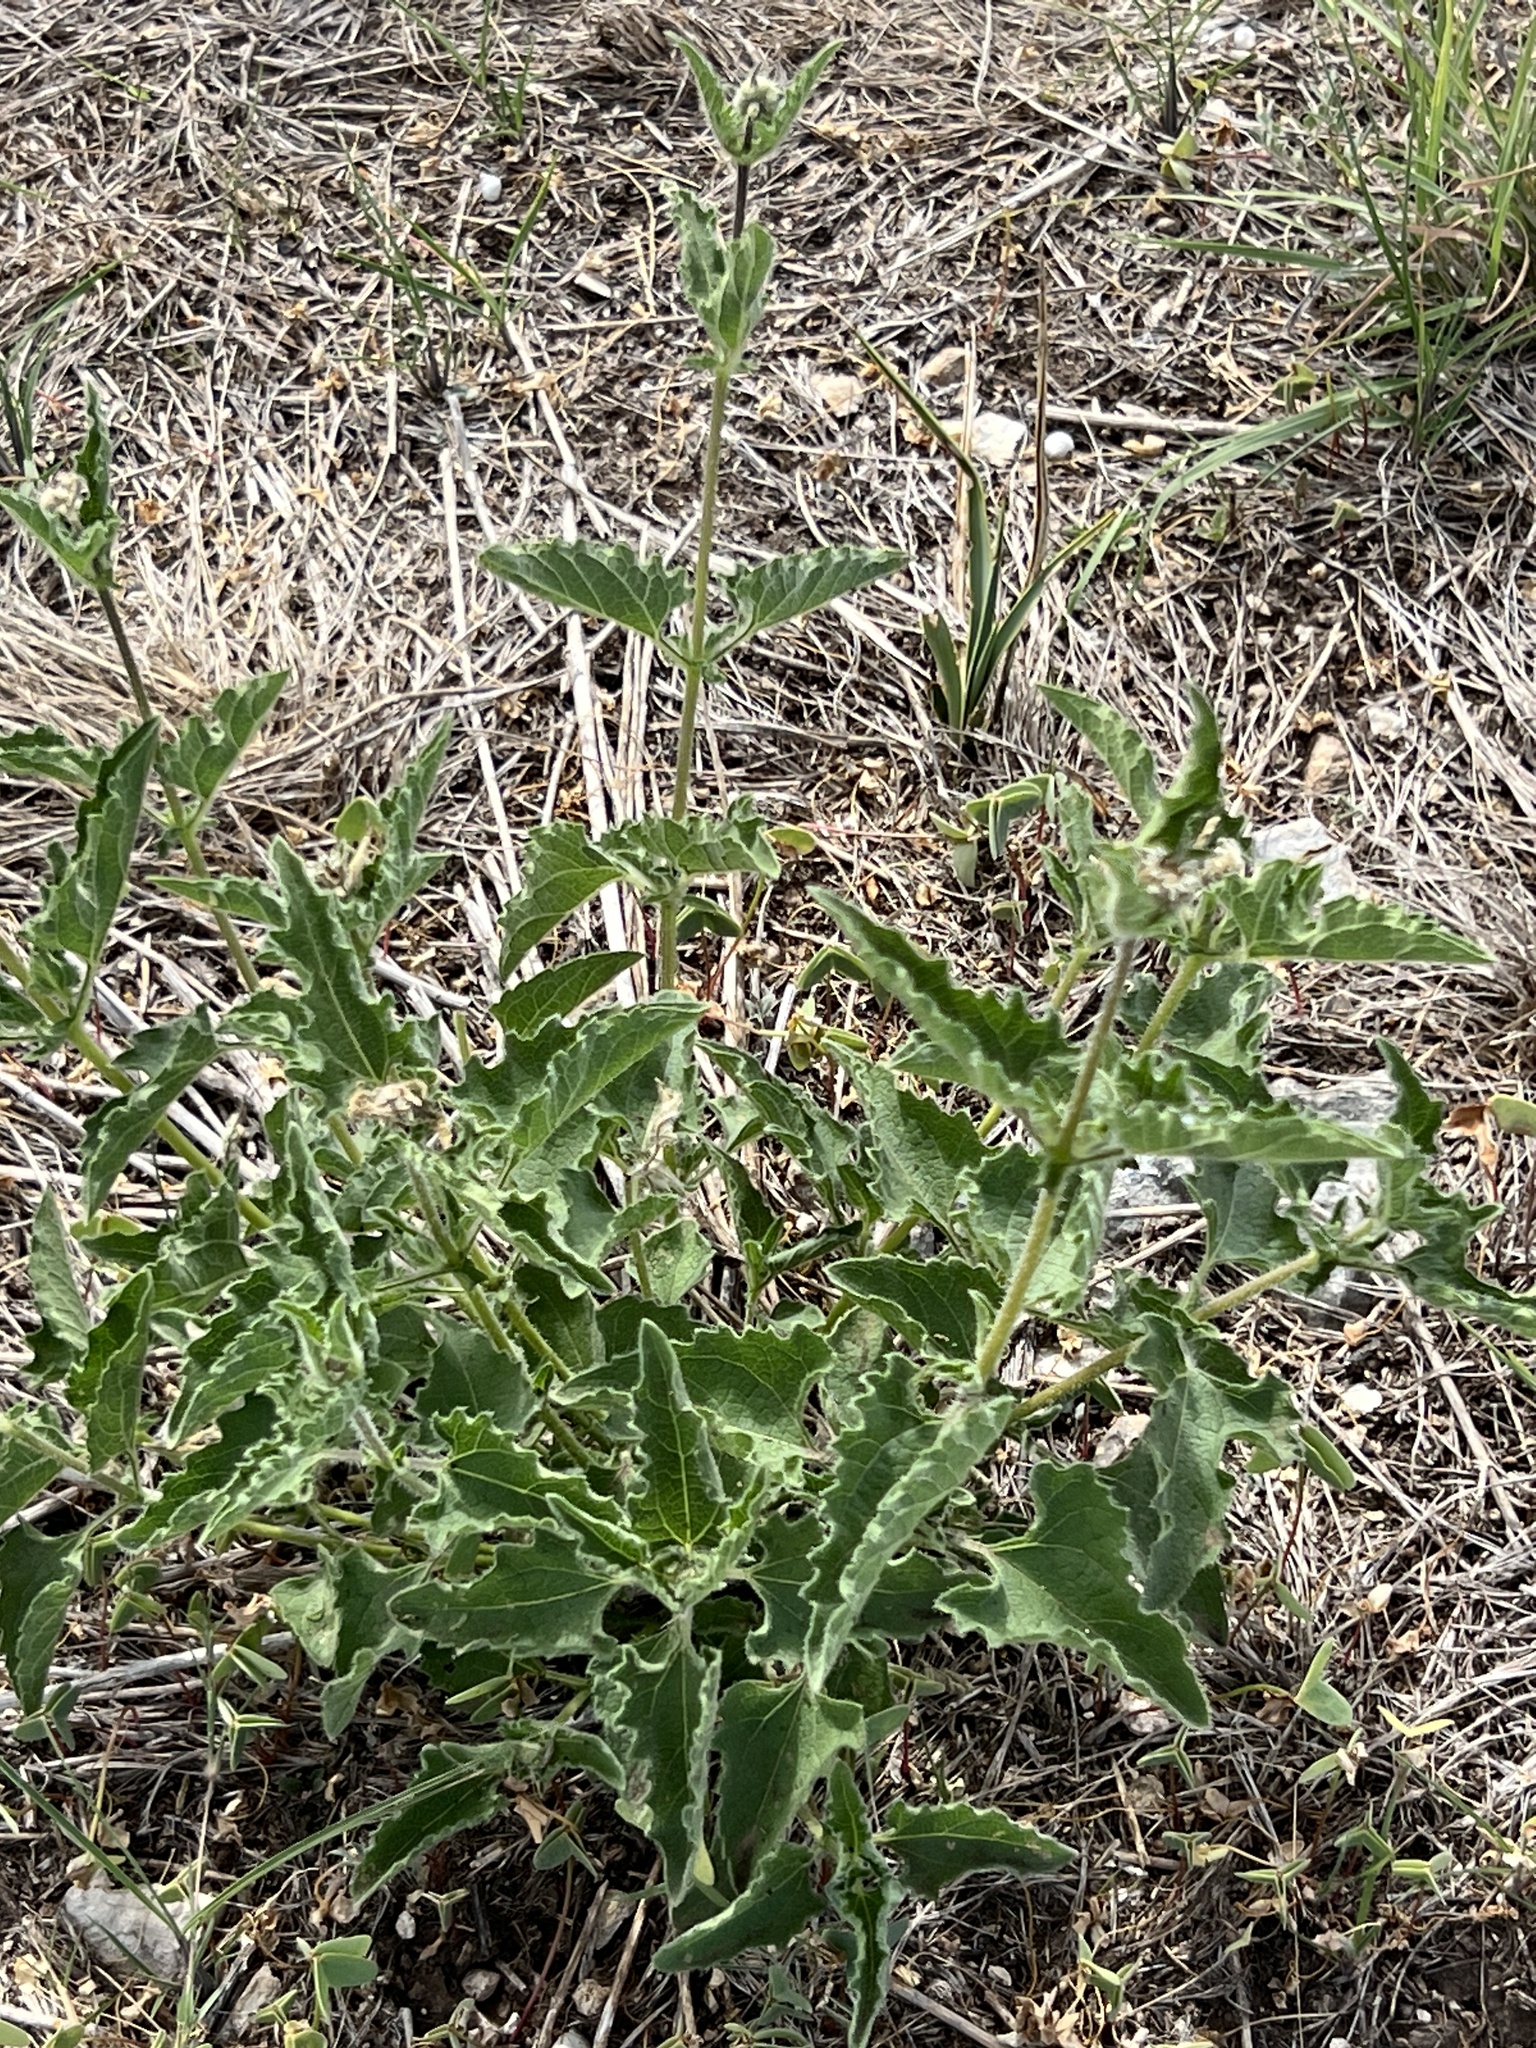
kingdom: Plantae
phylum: Tracheophyta
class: Magnoliopsida
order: Asterales
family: Asteraceae
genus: Simsia
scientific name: Simsia calva
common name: Awnless bush-sunflower
